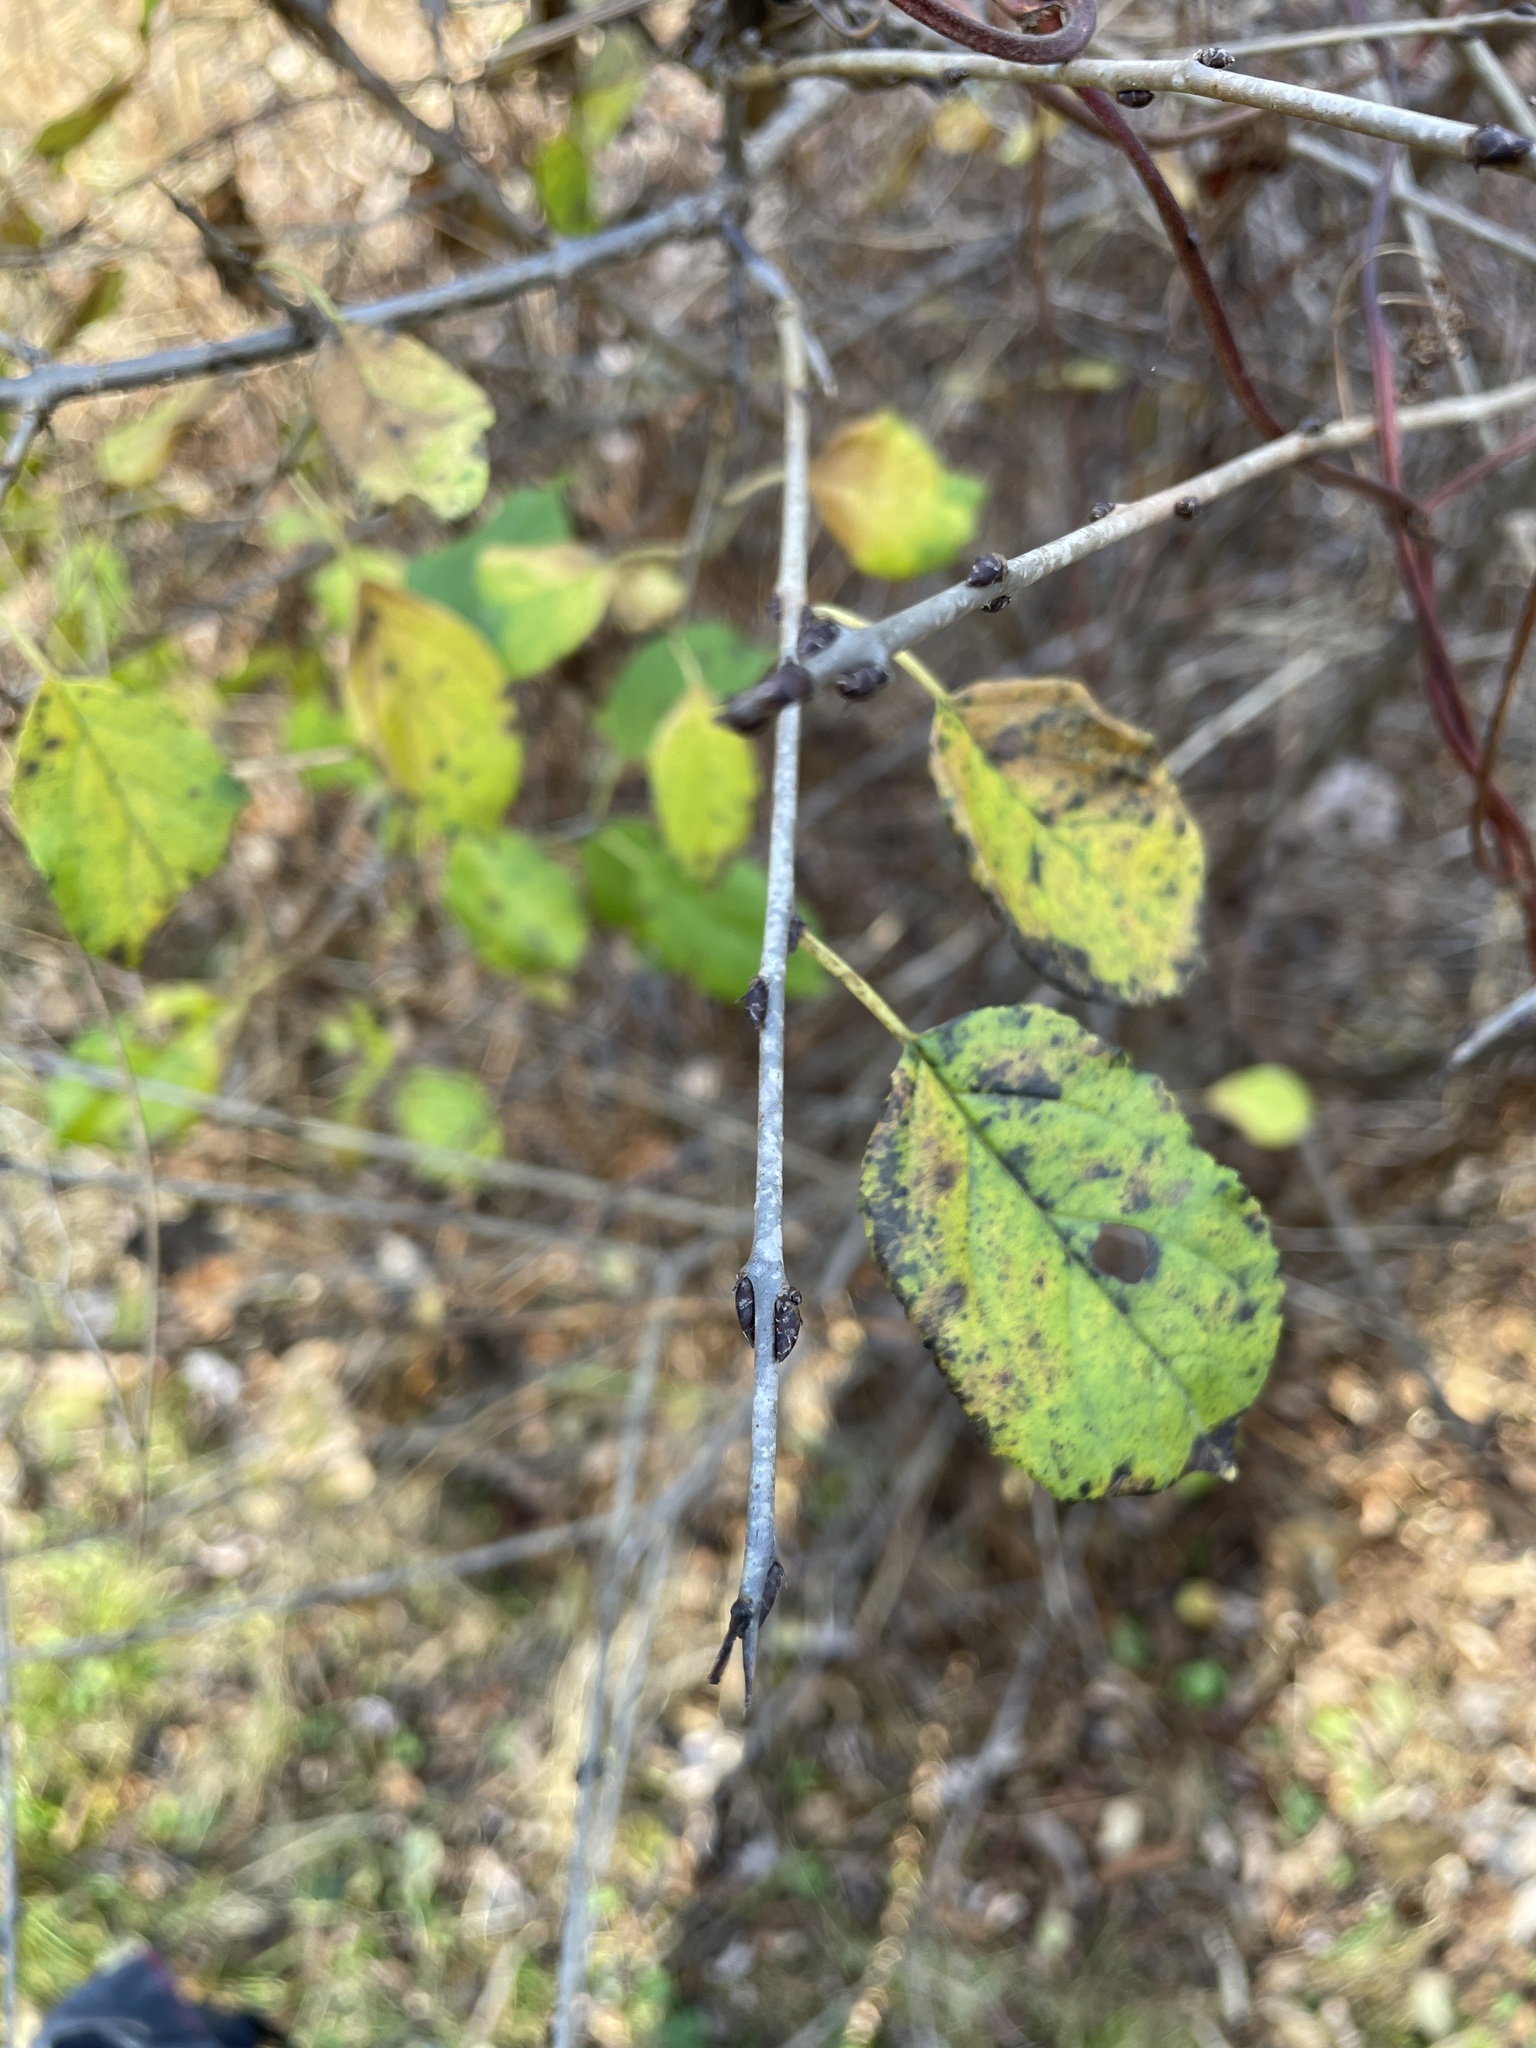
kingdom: Plantae
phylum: Tracheophyta
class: Magnoliopsida
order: Rosales
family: Rhamnaceae
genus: Rhamnus
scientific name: Rhamnus cathartica
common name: Common buckthorn
